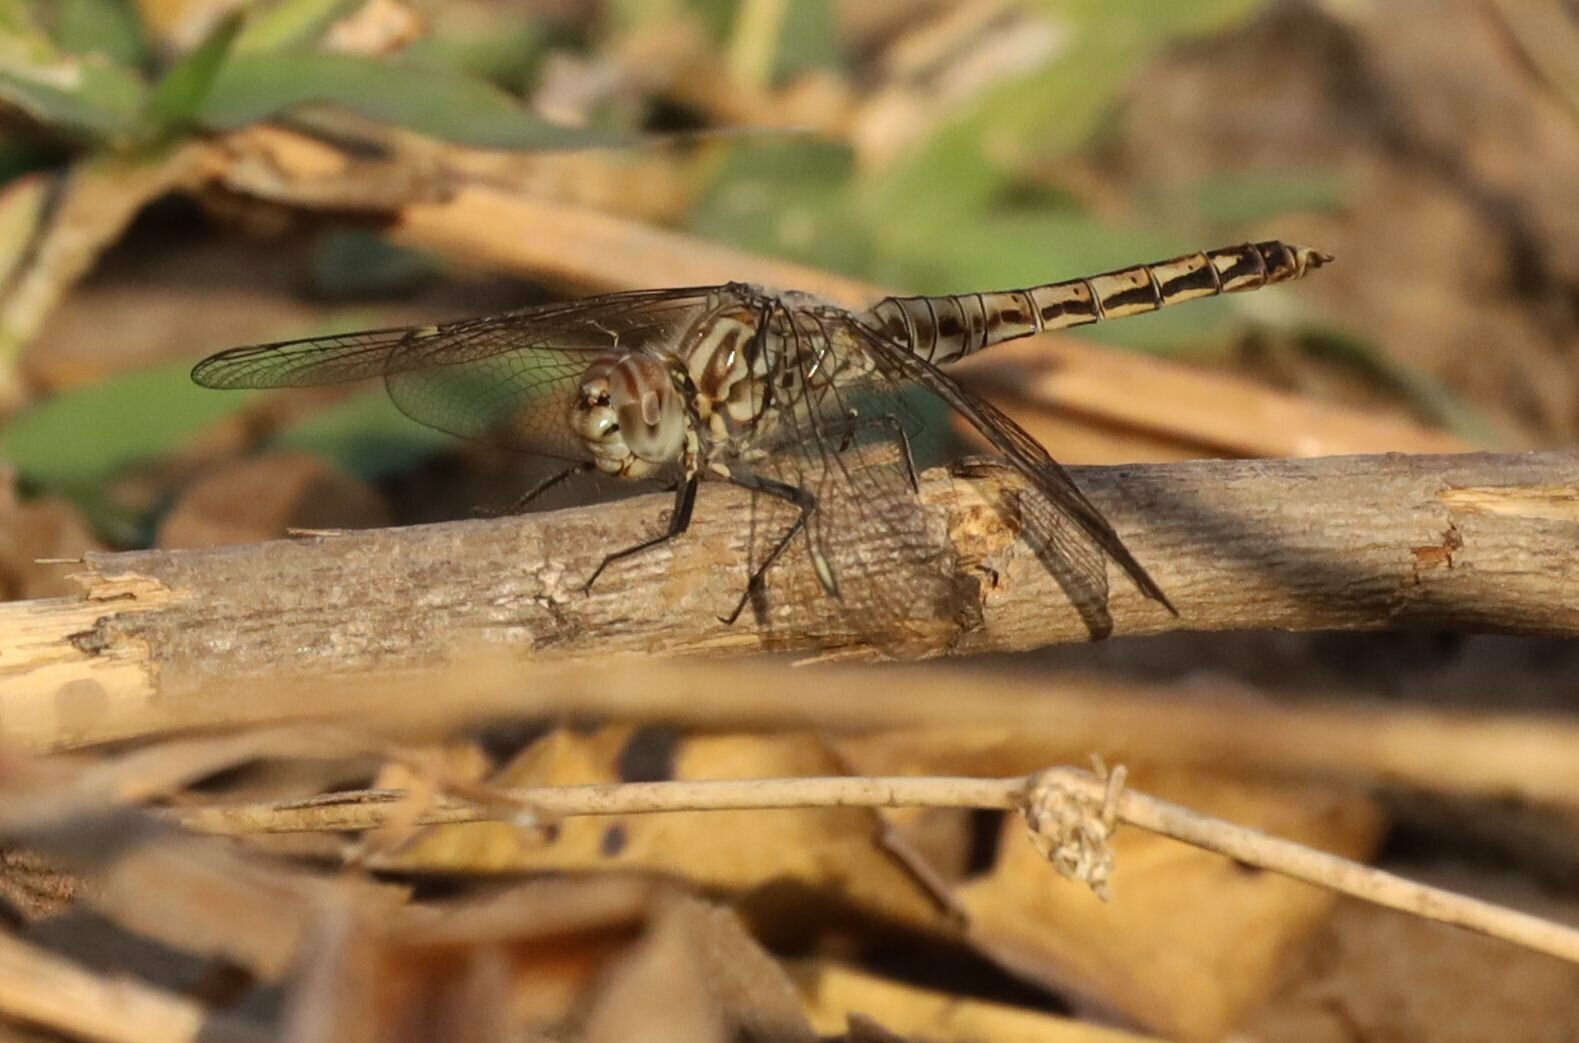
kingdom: Animalia
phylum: Arthropoda
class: Insecta
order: Odonata
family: Libellulidae
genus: Brachythemis
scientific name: Brachythemis leucosticta
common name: Banded groundling
